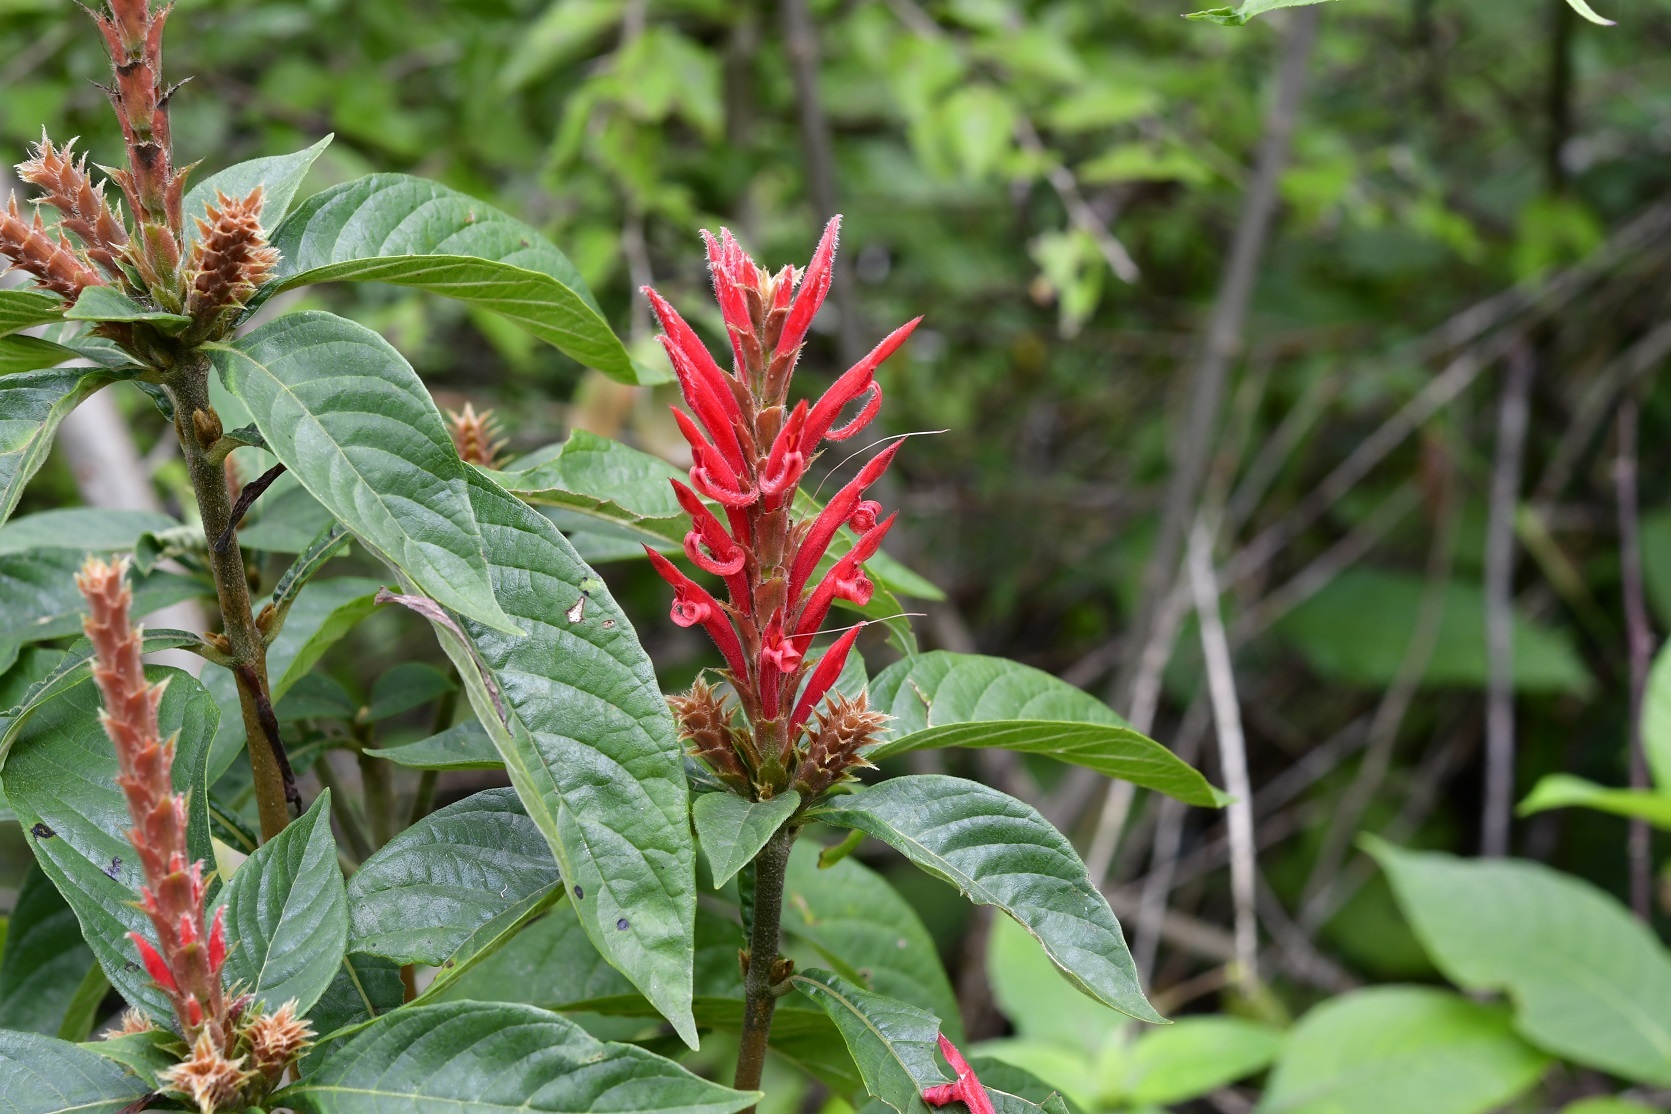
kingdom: Plantae
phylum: Tracheophyta
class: Magnoliopsida
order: Lamiales
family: Acanthaceae
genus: Aphelandra
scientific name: Aphelandra scabra
